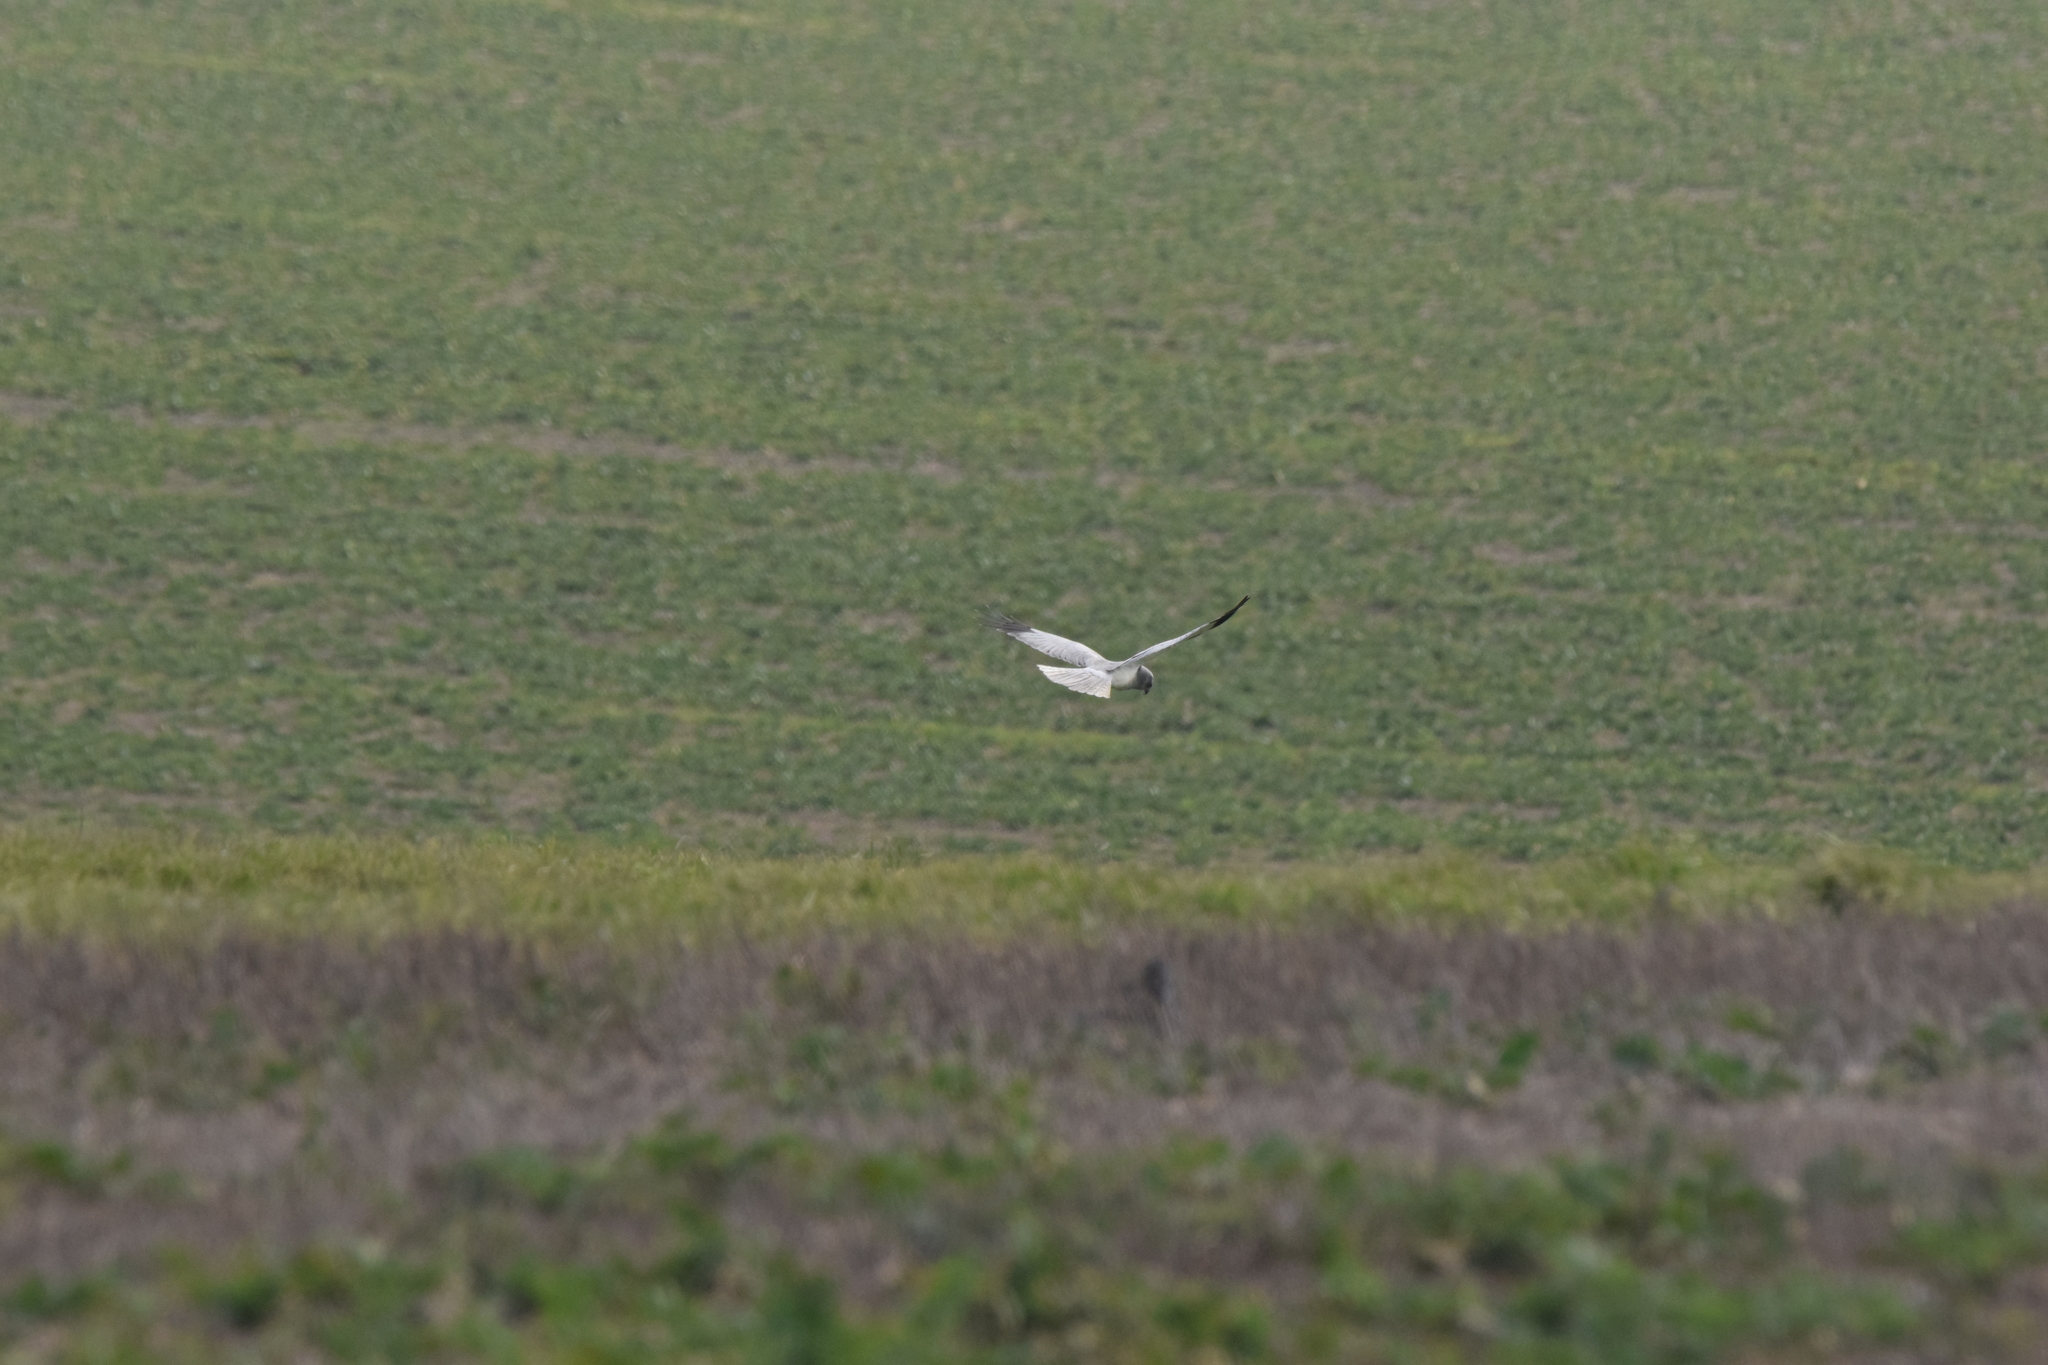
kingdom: Animalia
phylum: Chordata
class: Aves
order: Accipitriformes
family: Accipitridae
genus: Circus
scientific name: Circus cyaneus
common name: Hen harrier
